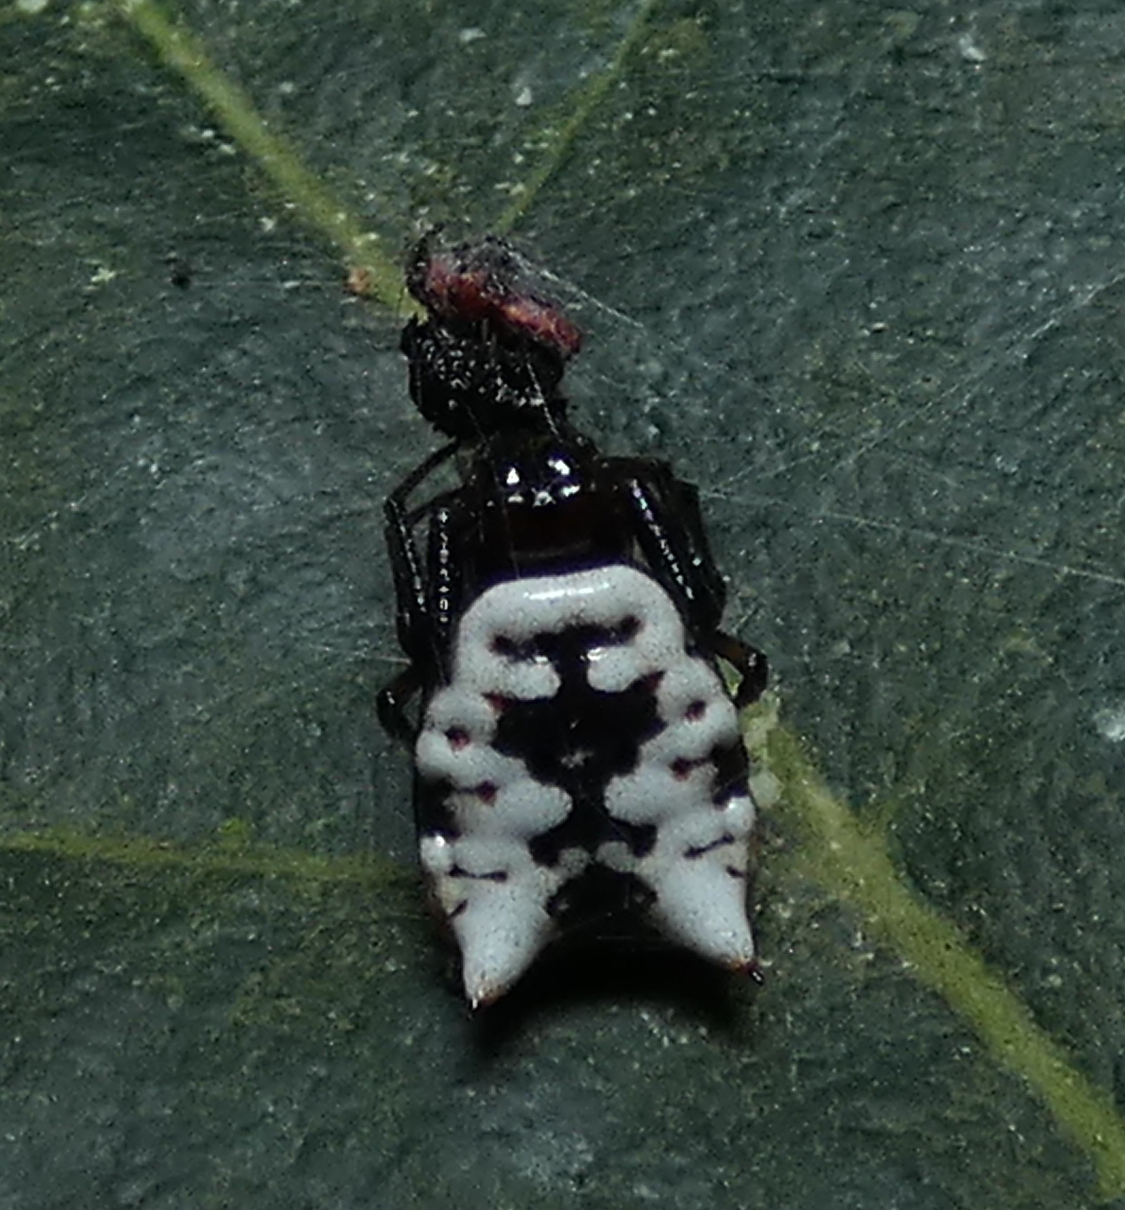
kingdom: Animalia
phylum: Arthropoda
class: Arachnida
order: Araneae
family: Araneidae
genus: Micrathena
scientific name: Micrathena patruelis
